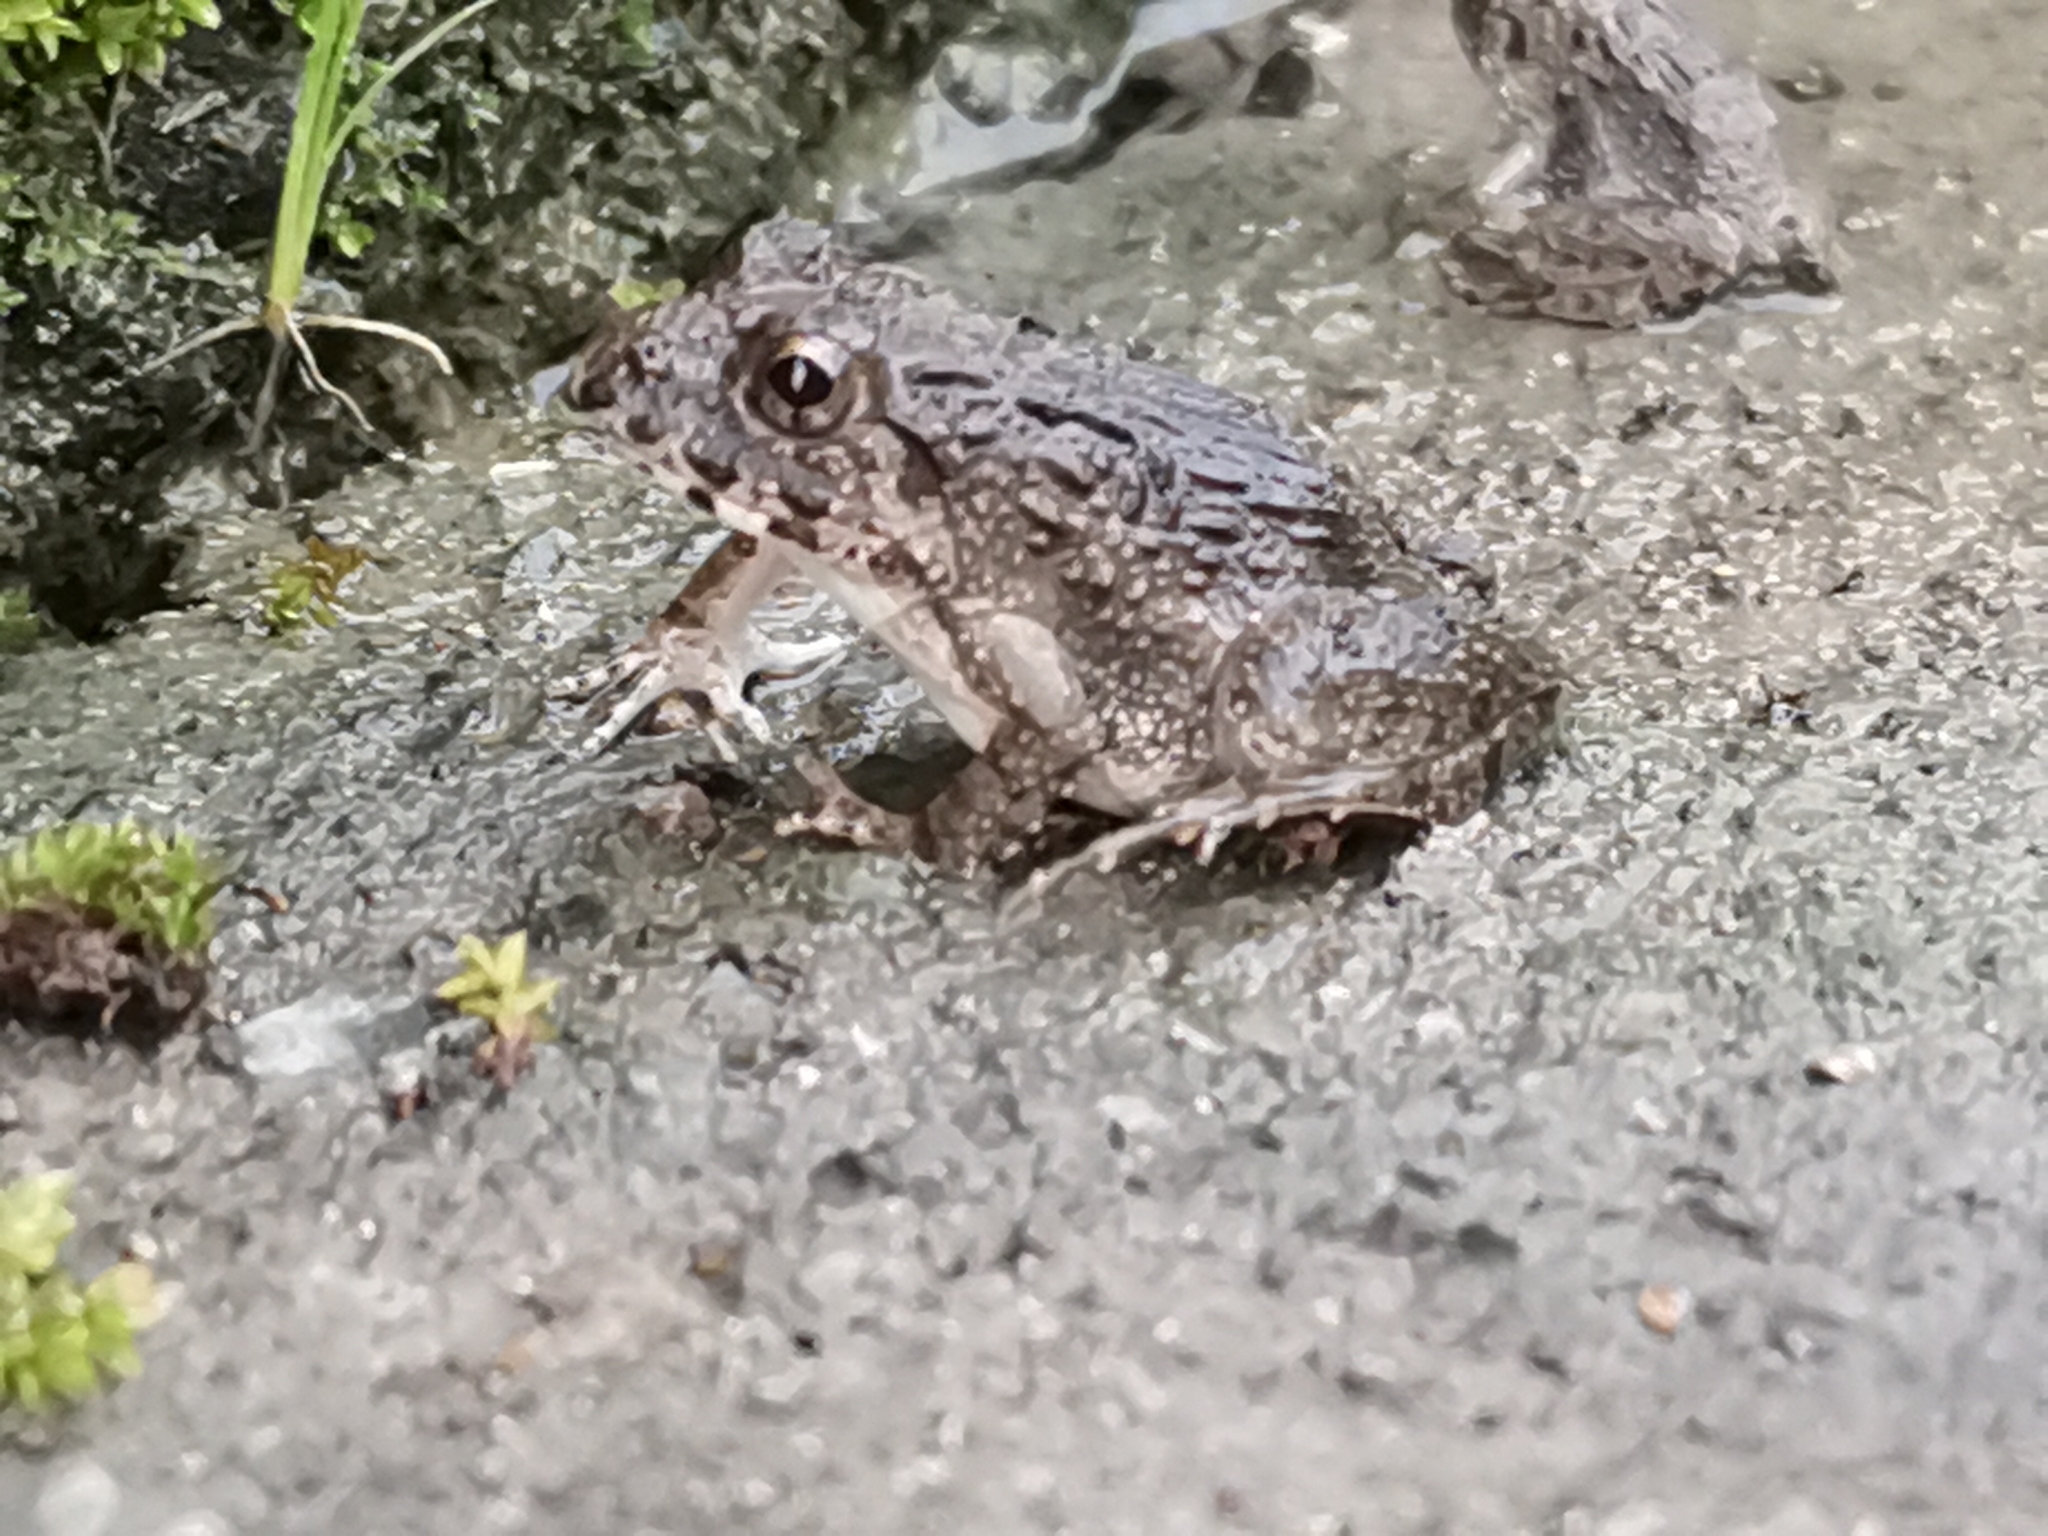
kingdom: Animalia
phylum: Chordata
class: Amphibia
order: Anura
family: Dicroglossidae
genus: Fejervarya
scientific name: Fejervarya kawamurai
